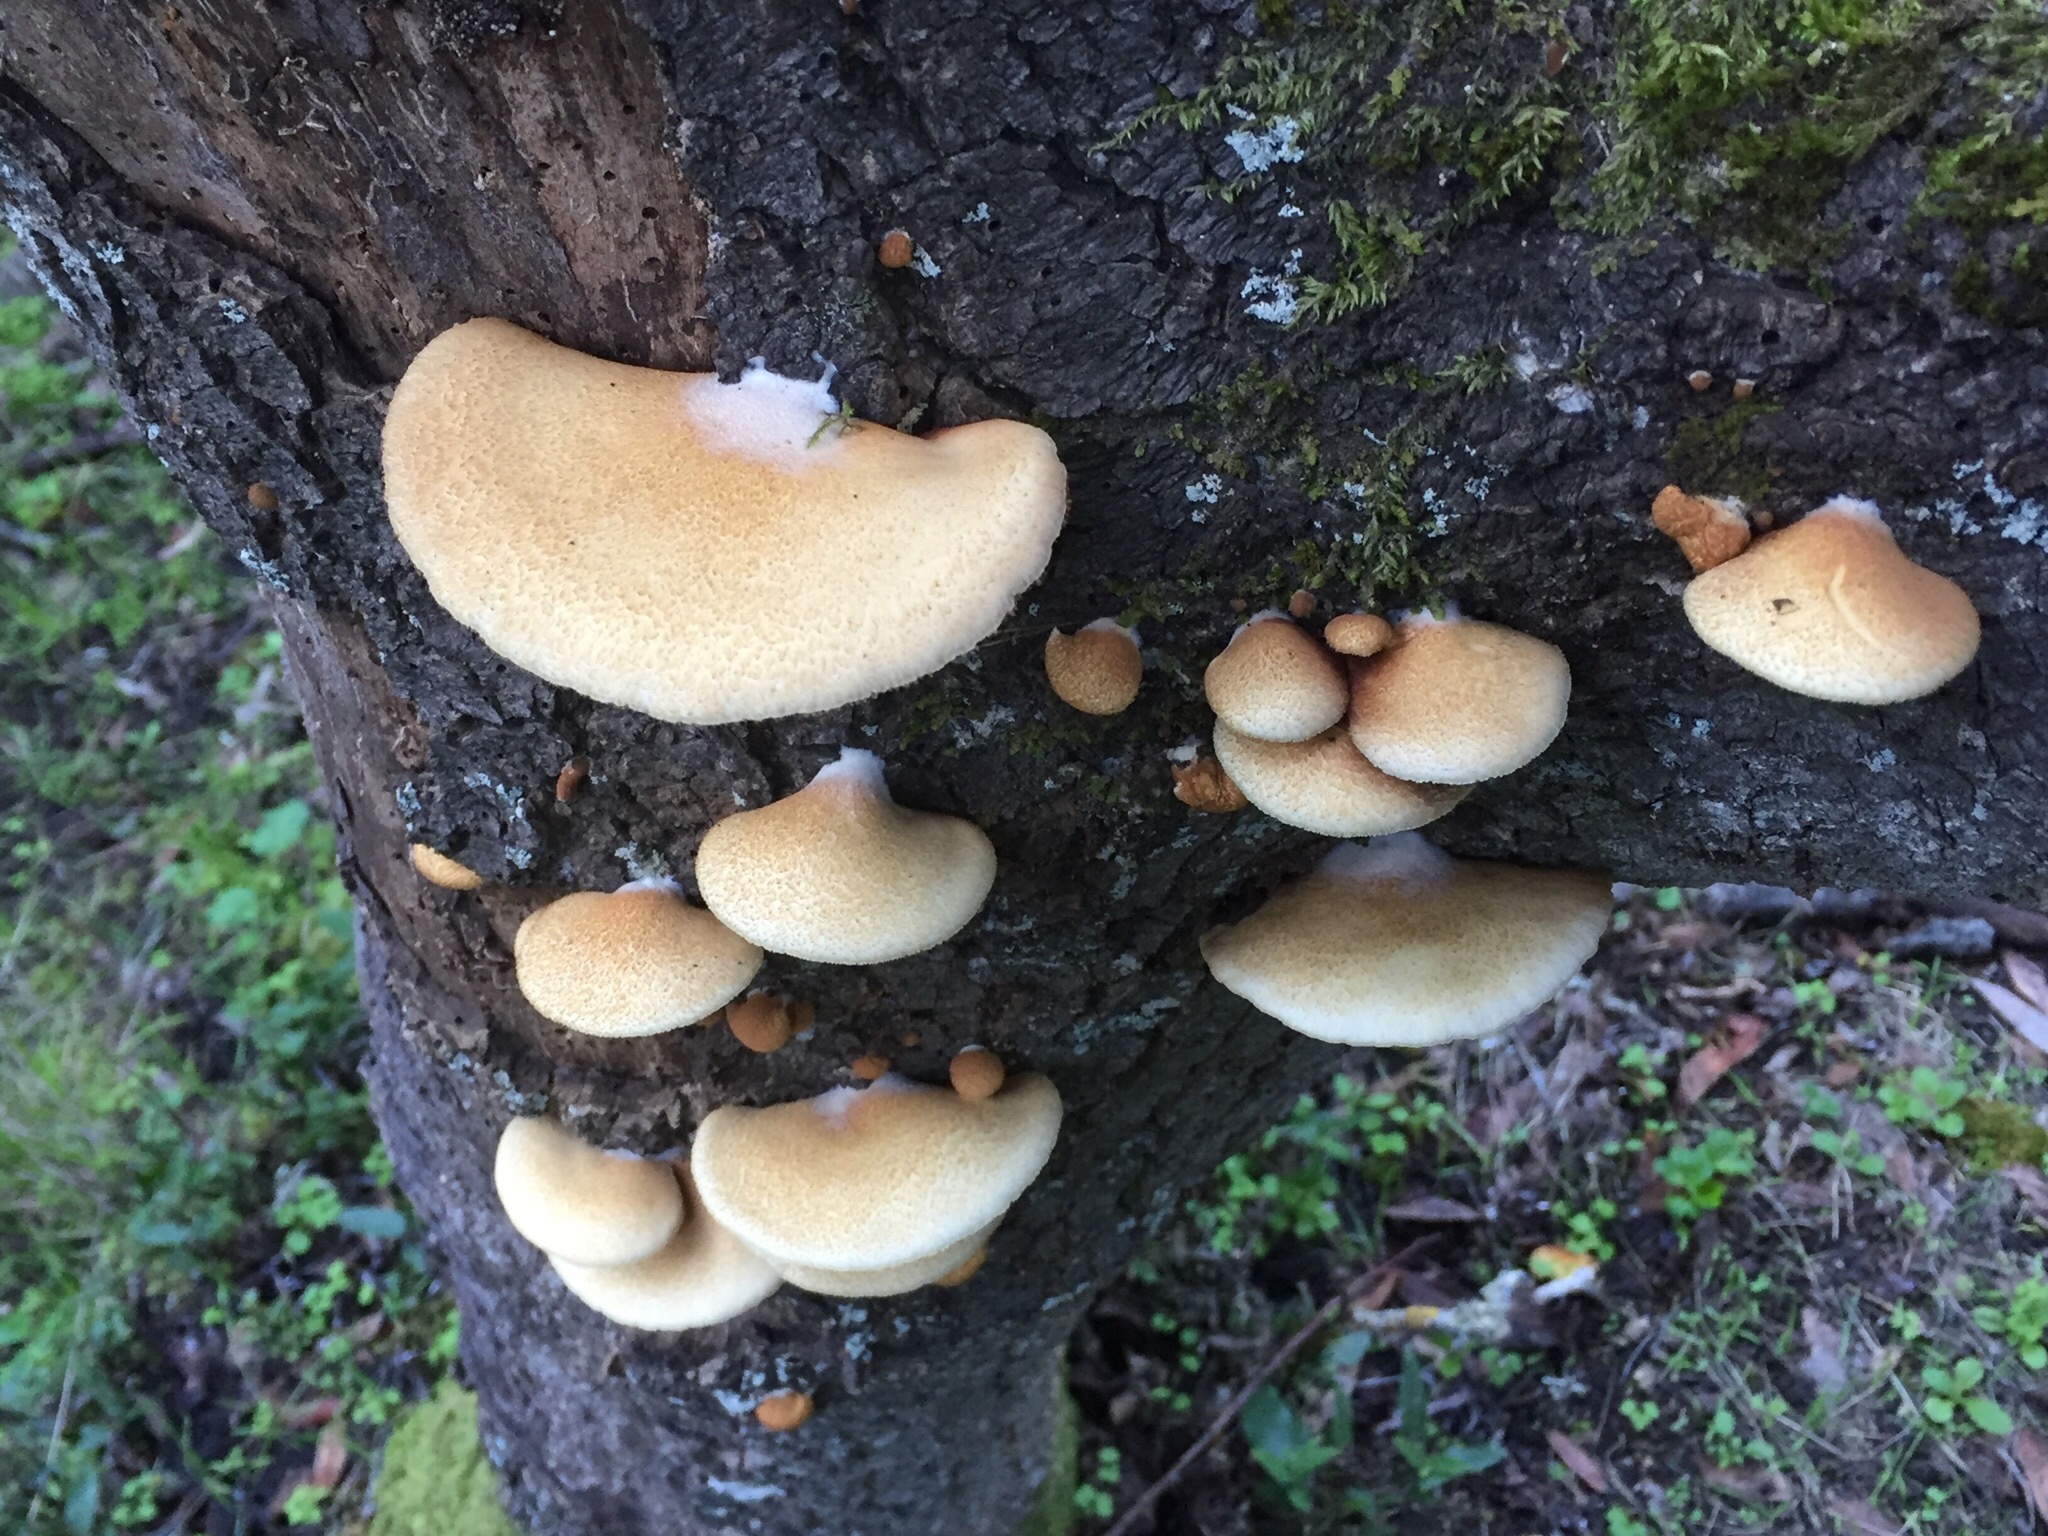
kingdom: Fungi
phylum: Basidiomycota
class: Agaricomycetes
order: Agaricales
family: Crepidotaceae
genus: Crepidotus
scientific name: Crepidotus mollis
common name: Peeling oysterling
